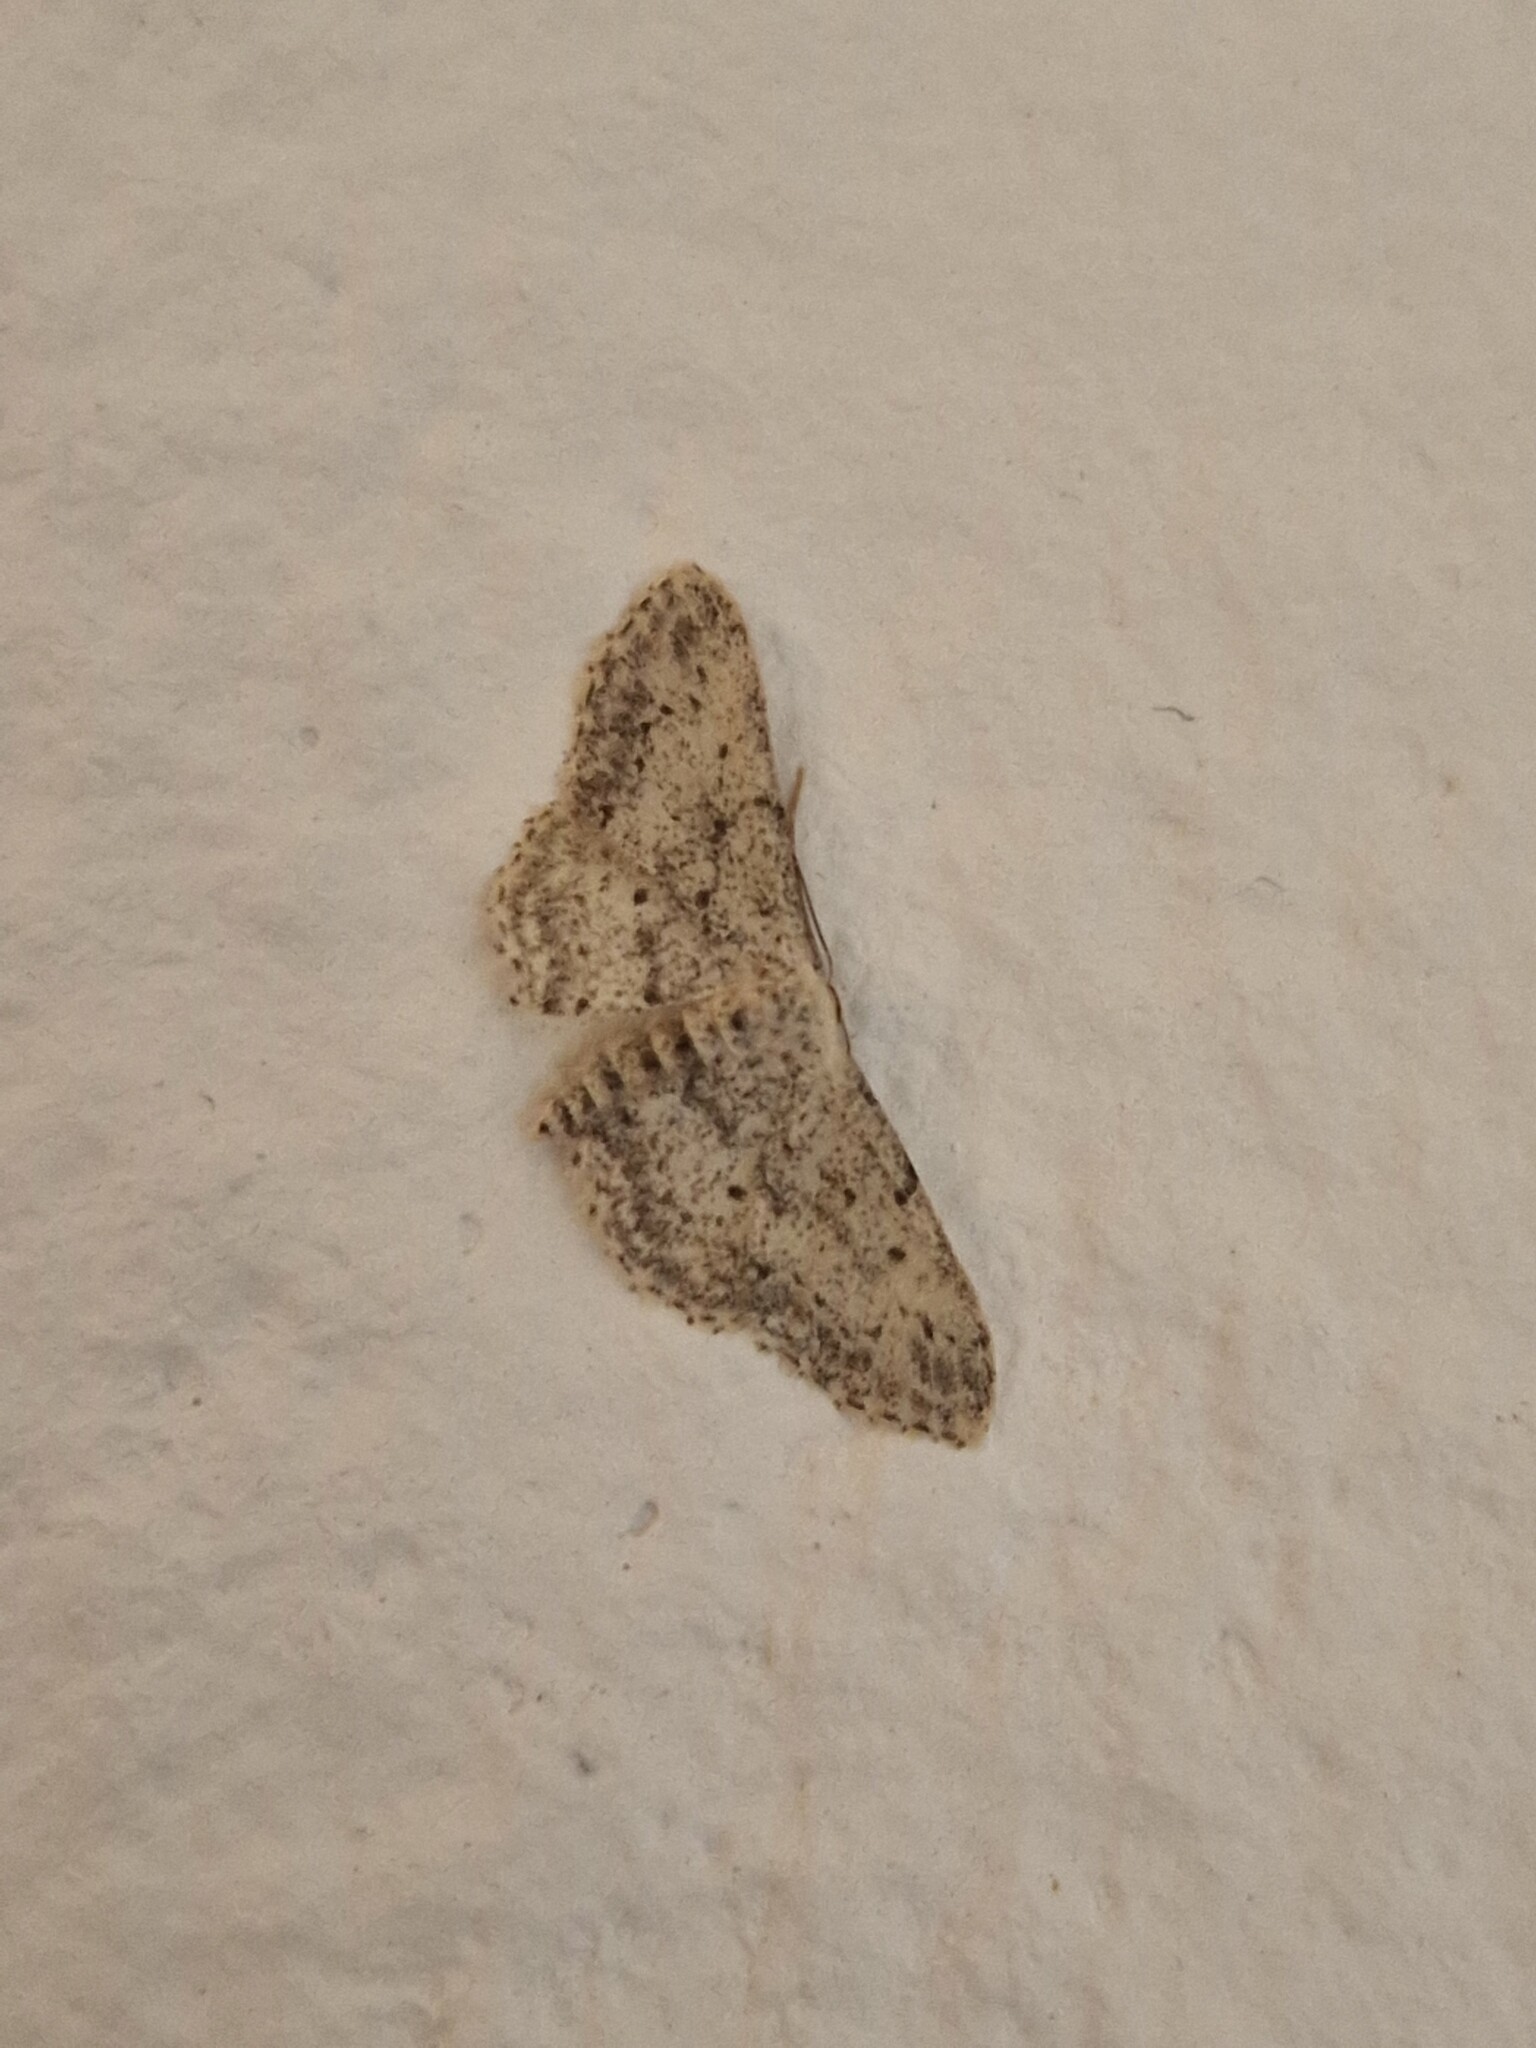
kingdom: Animalia
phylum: Arthropoda
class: Insecta
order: Lepidoptera
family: Geometridae
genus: Idaea
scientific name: Idaea seriata
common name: Small dusty wave
